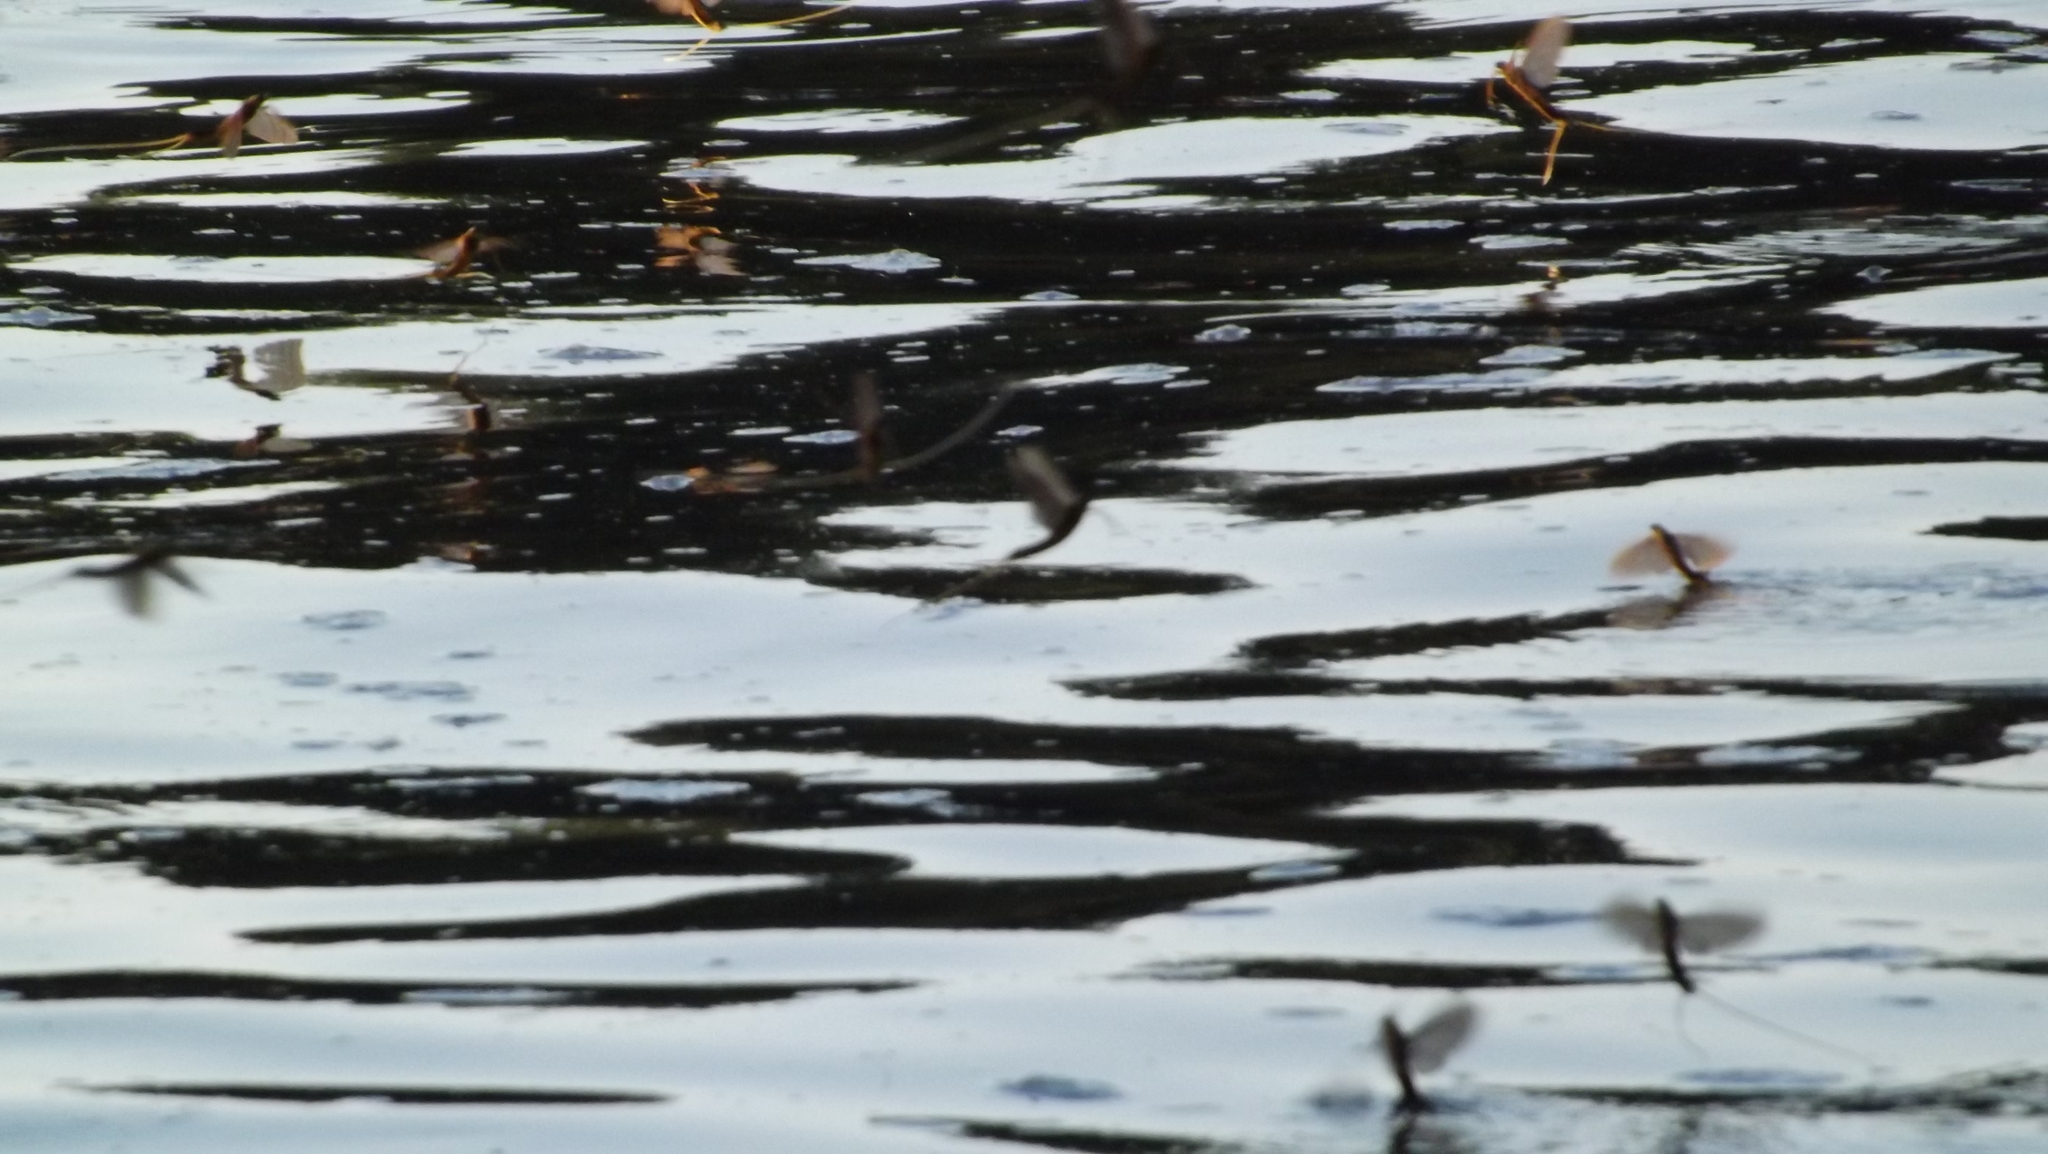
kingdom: Animalia
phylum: Arthropoda
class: Insecta
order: Ephemeroptera
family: Palingeniidae
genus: Palingenia
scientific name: Palingenia longicauda
